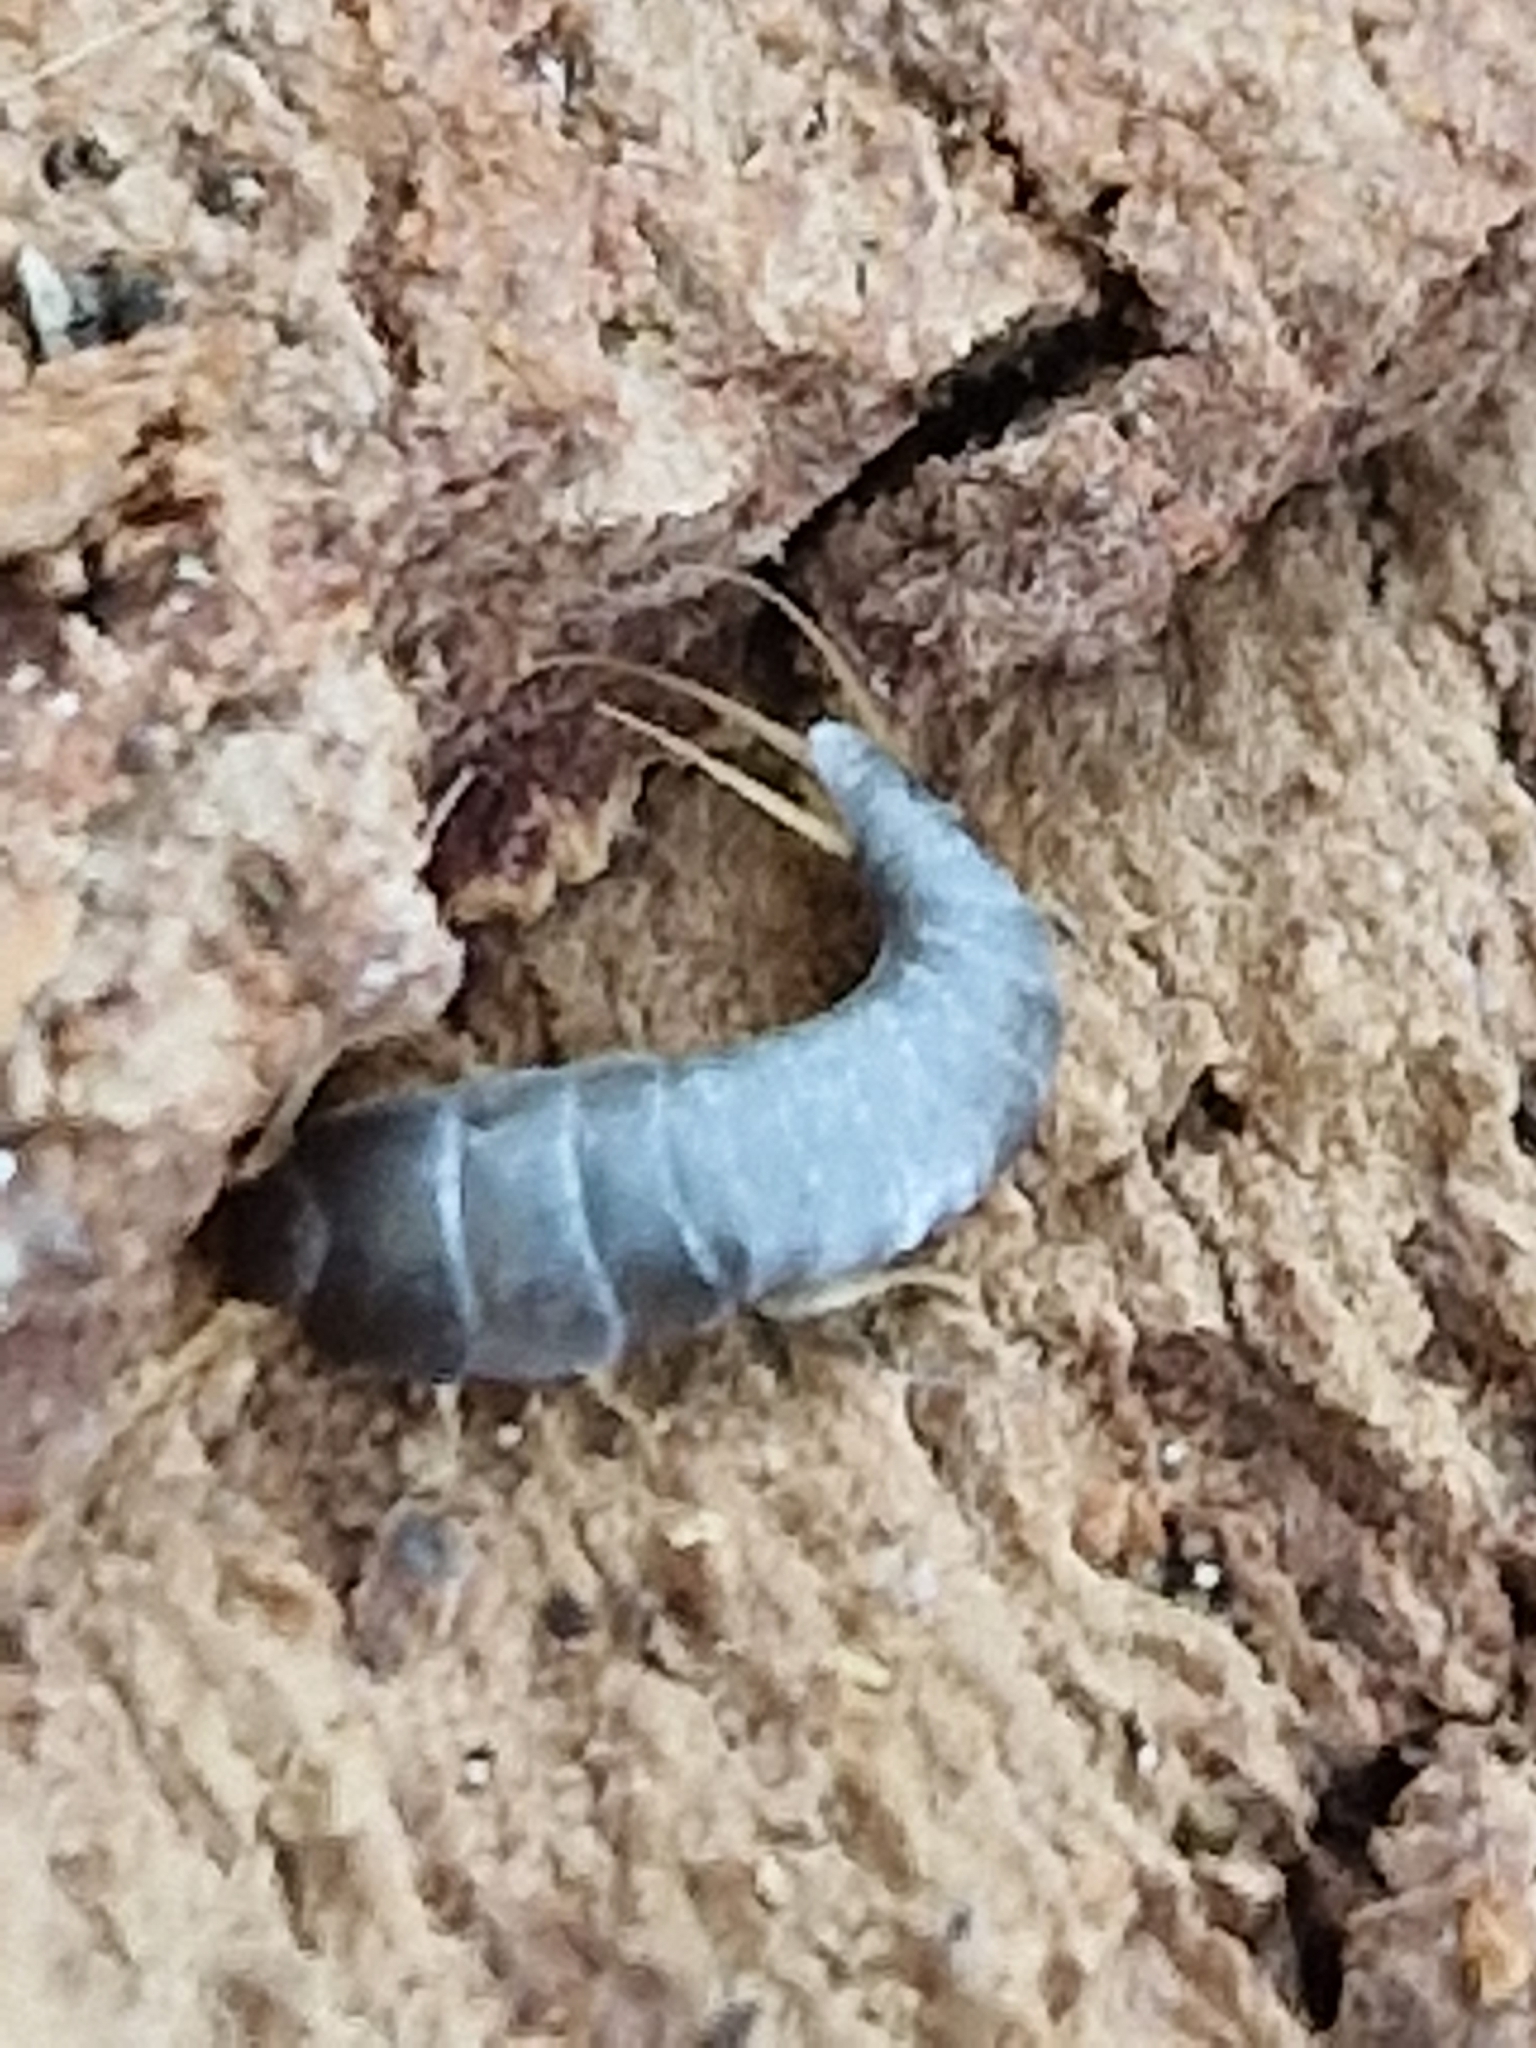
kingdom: Animalia
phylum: Arthropoda
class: Insecta
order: Zygentoma
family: Lepismatidae
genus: Lepisma
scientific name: Lepisma saccharinum
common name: Silverfish
